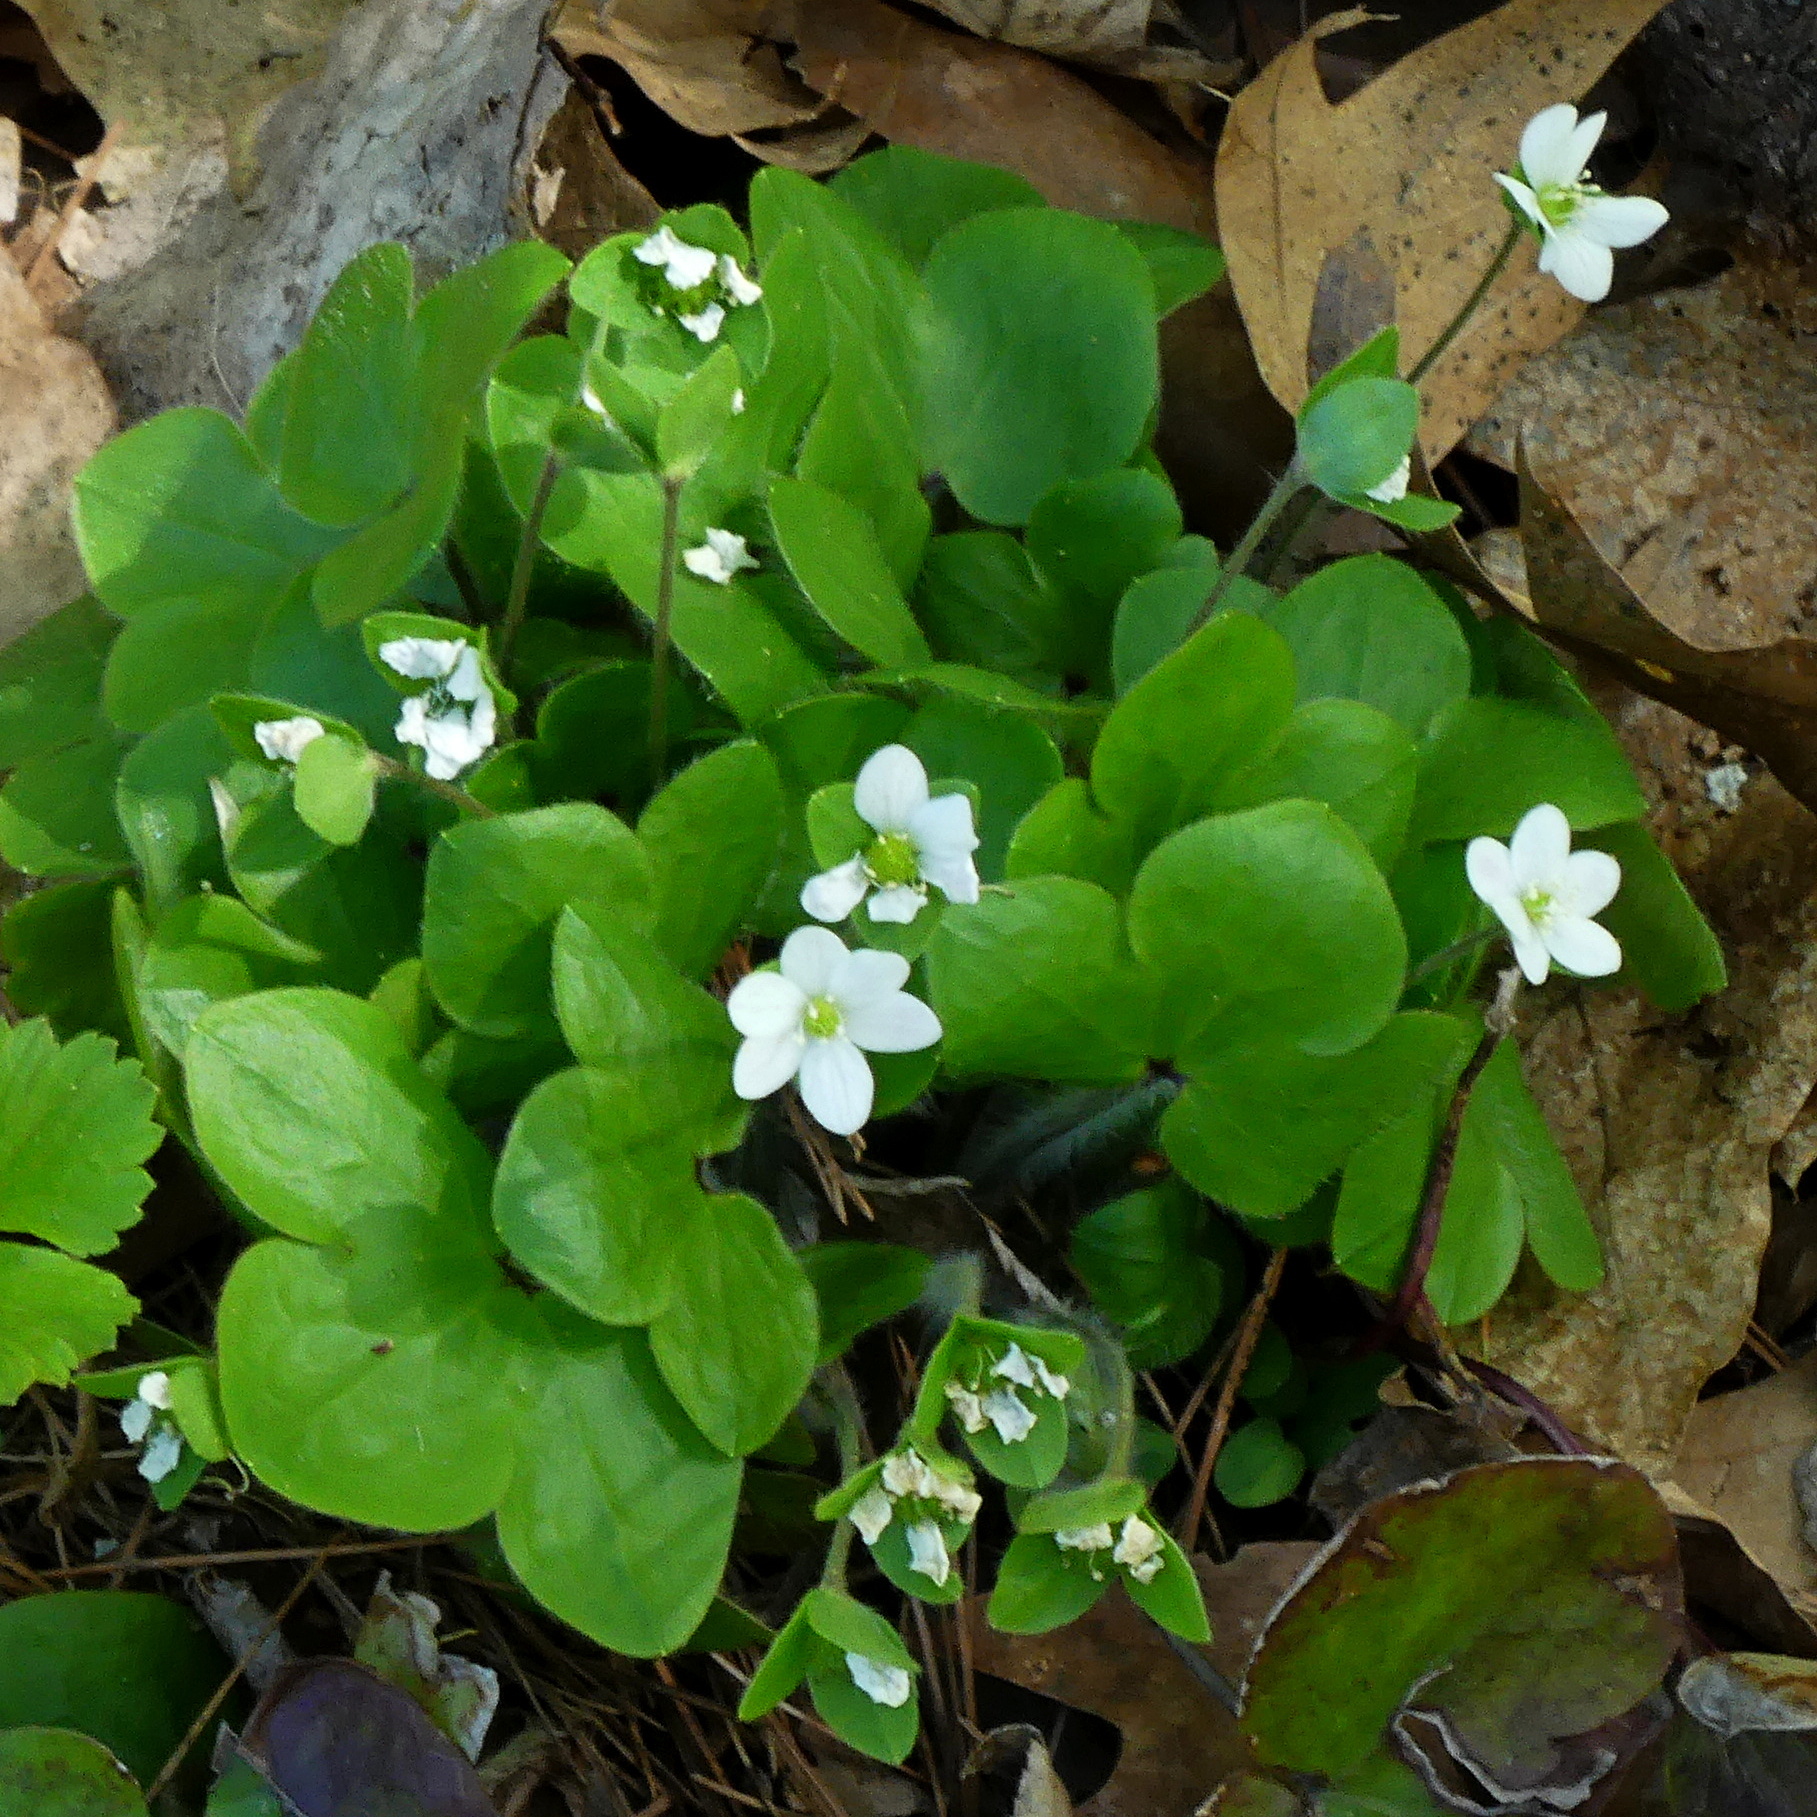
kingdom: Plantae
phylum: Tracheophyta
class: Magnoliopsida
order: Ranunculales
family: Ranunculaceae
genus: Hepatica
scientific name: Hepatica americana
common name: American hepatica
